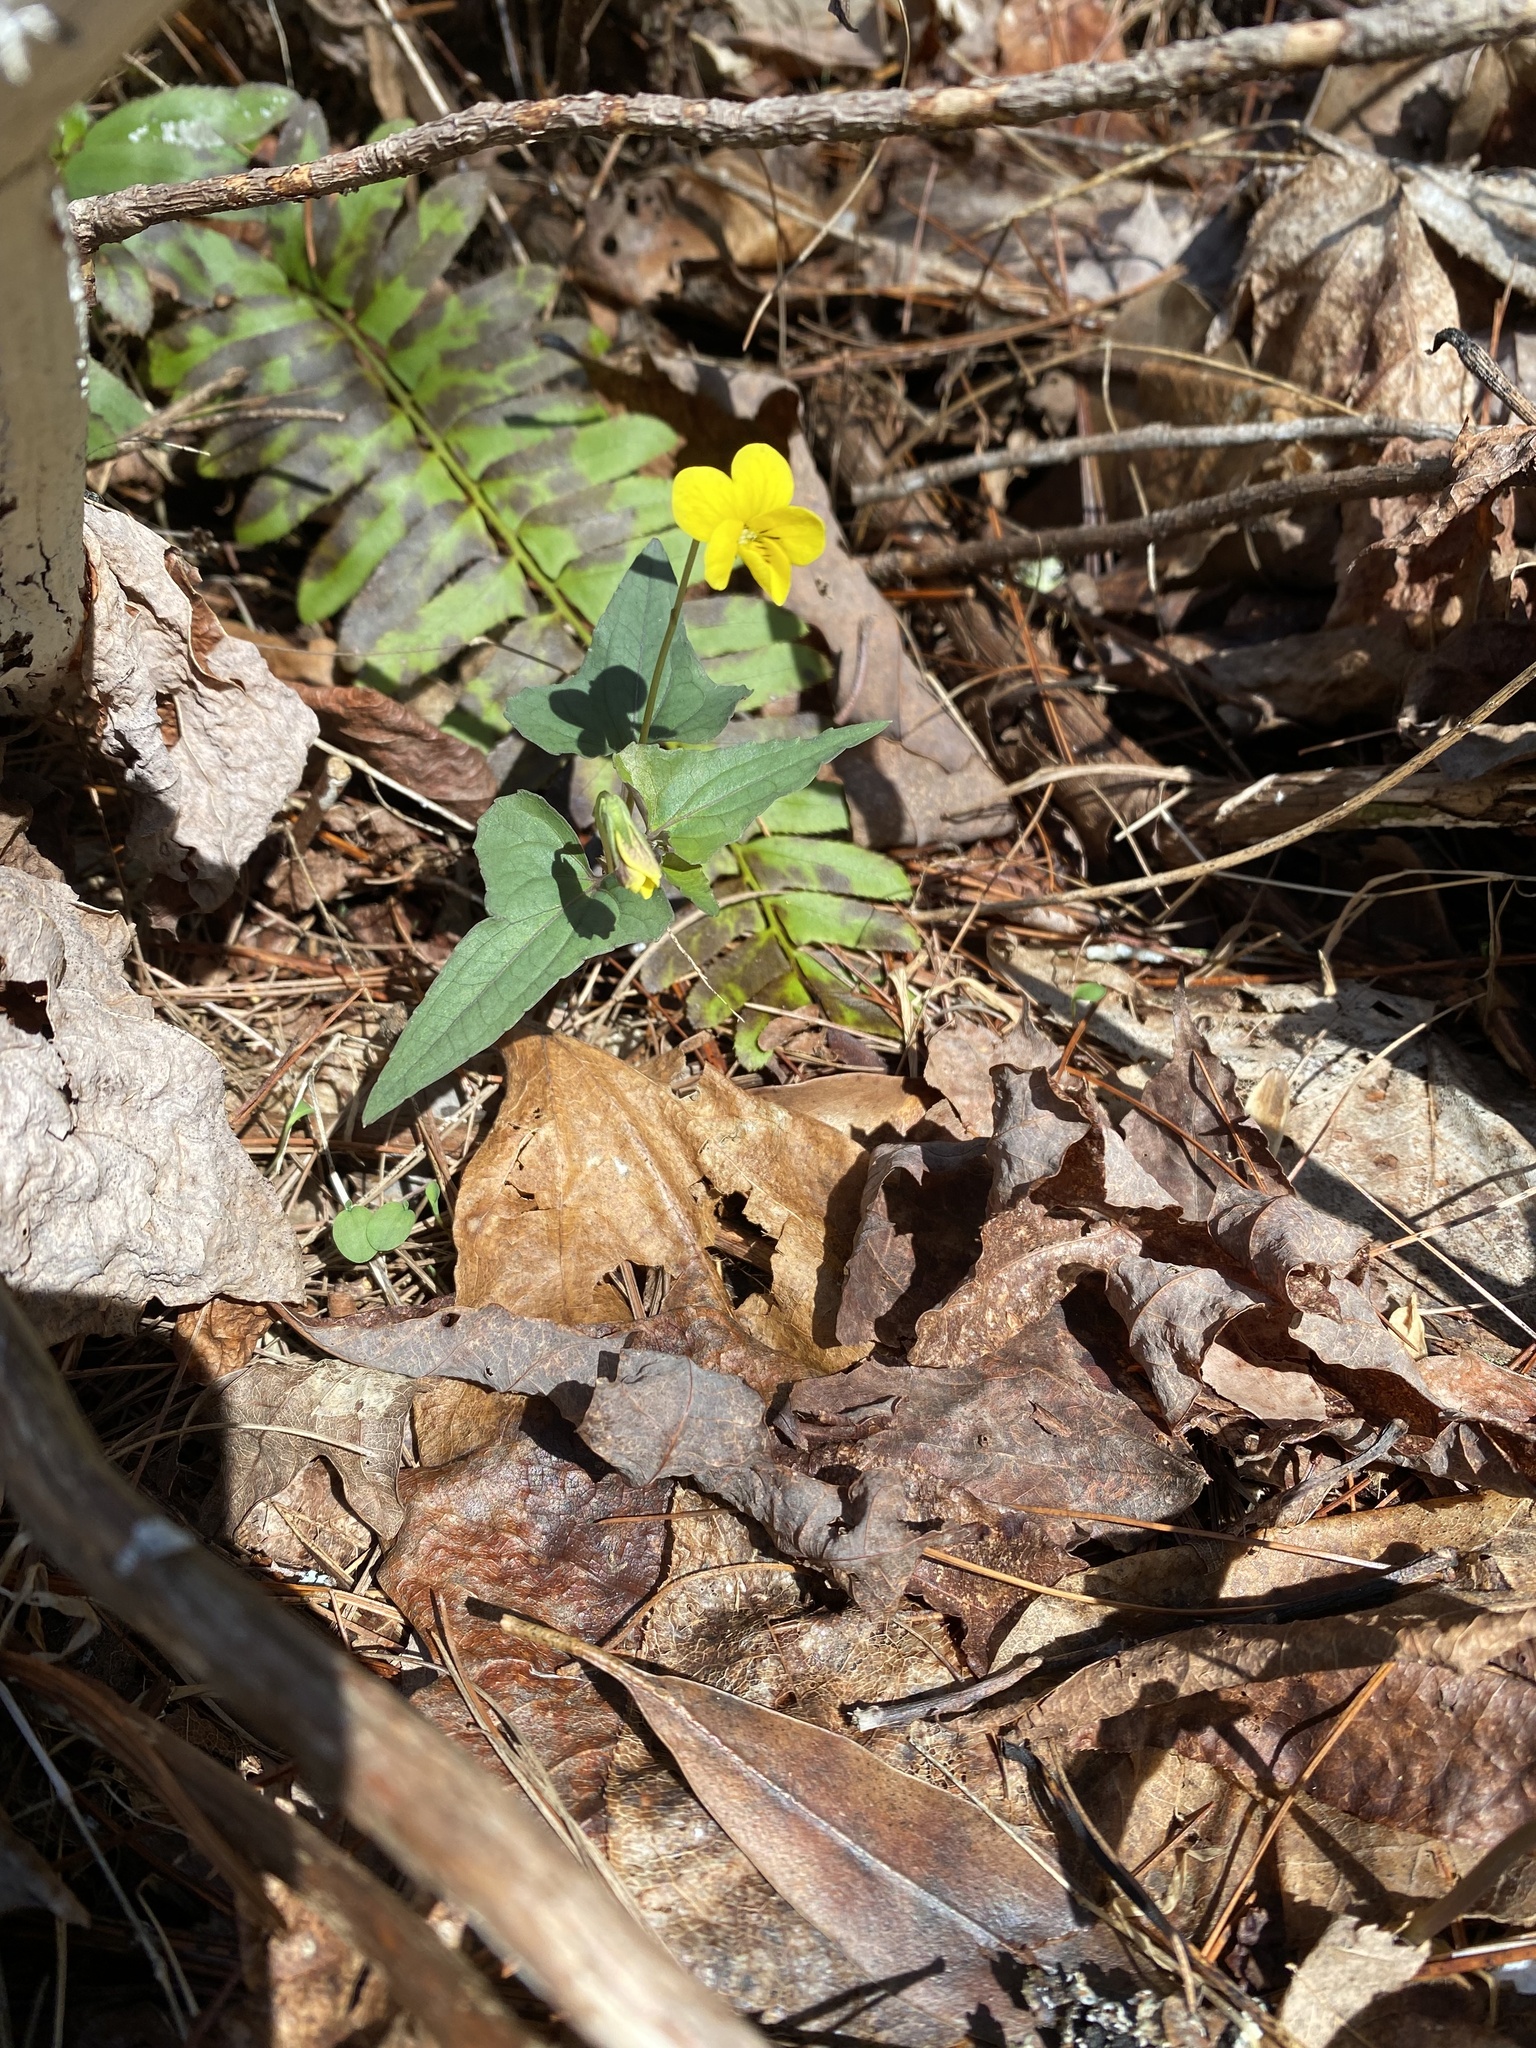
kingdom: Plantae
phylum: Tracheophyta
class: Magnoliopsida
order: Malpighiales
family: Violaceae
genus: Viola
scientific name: Viola hastata
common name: Spear-leaf violet
